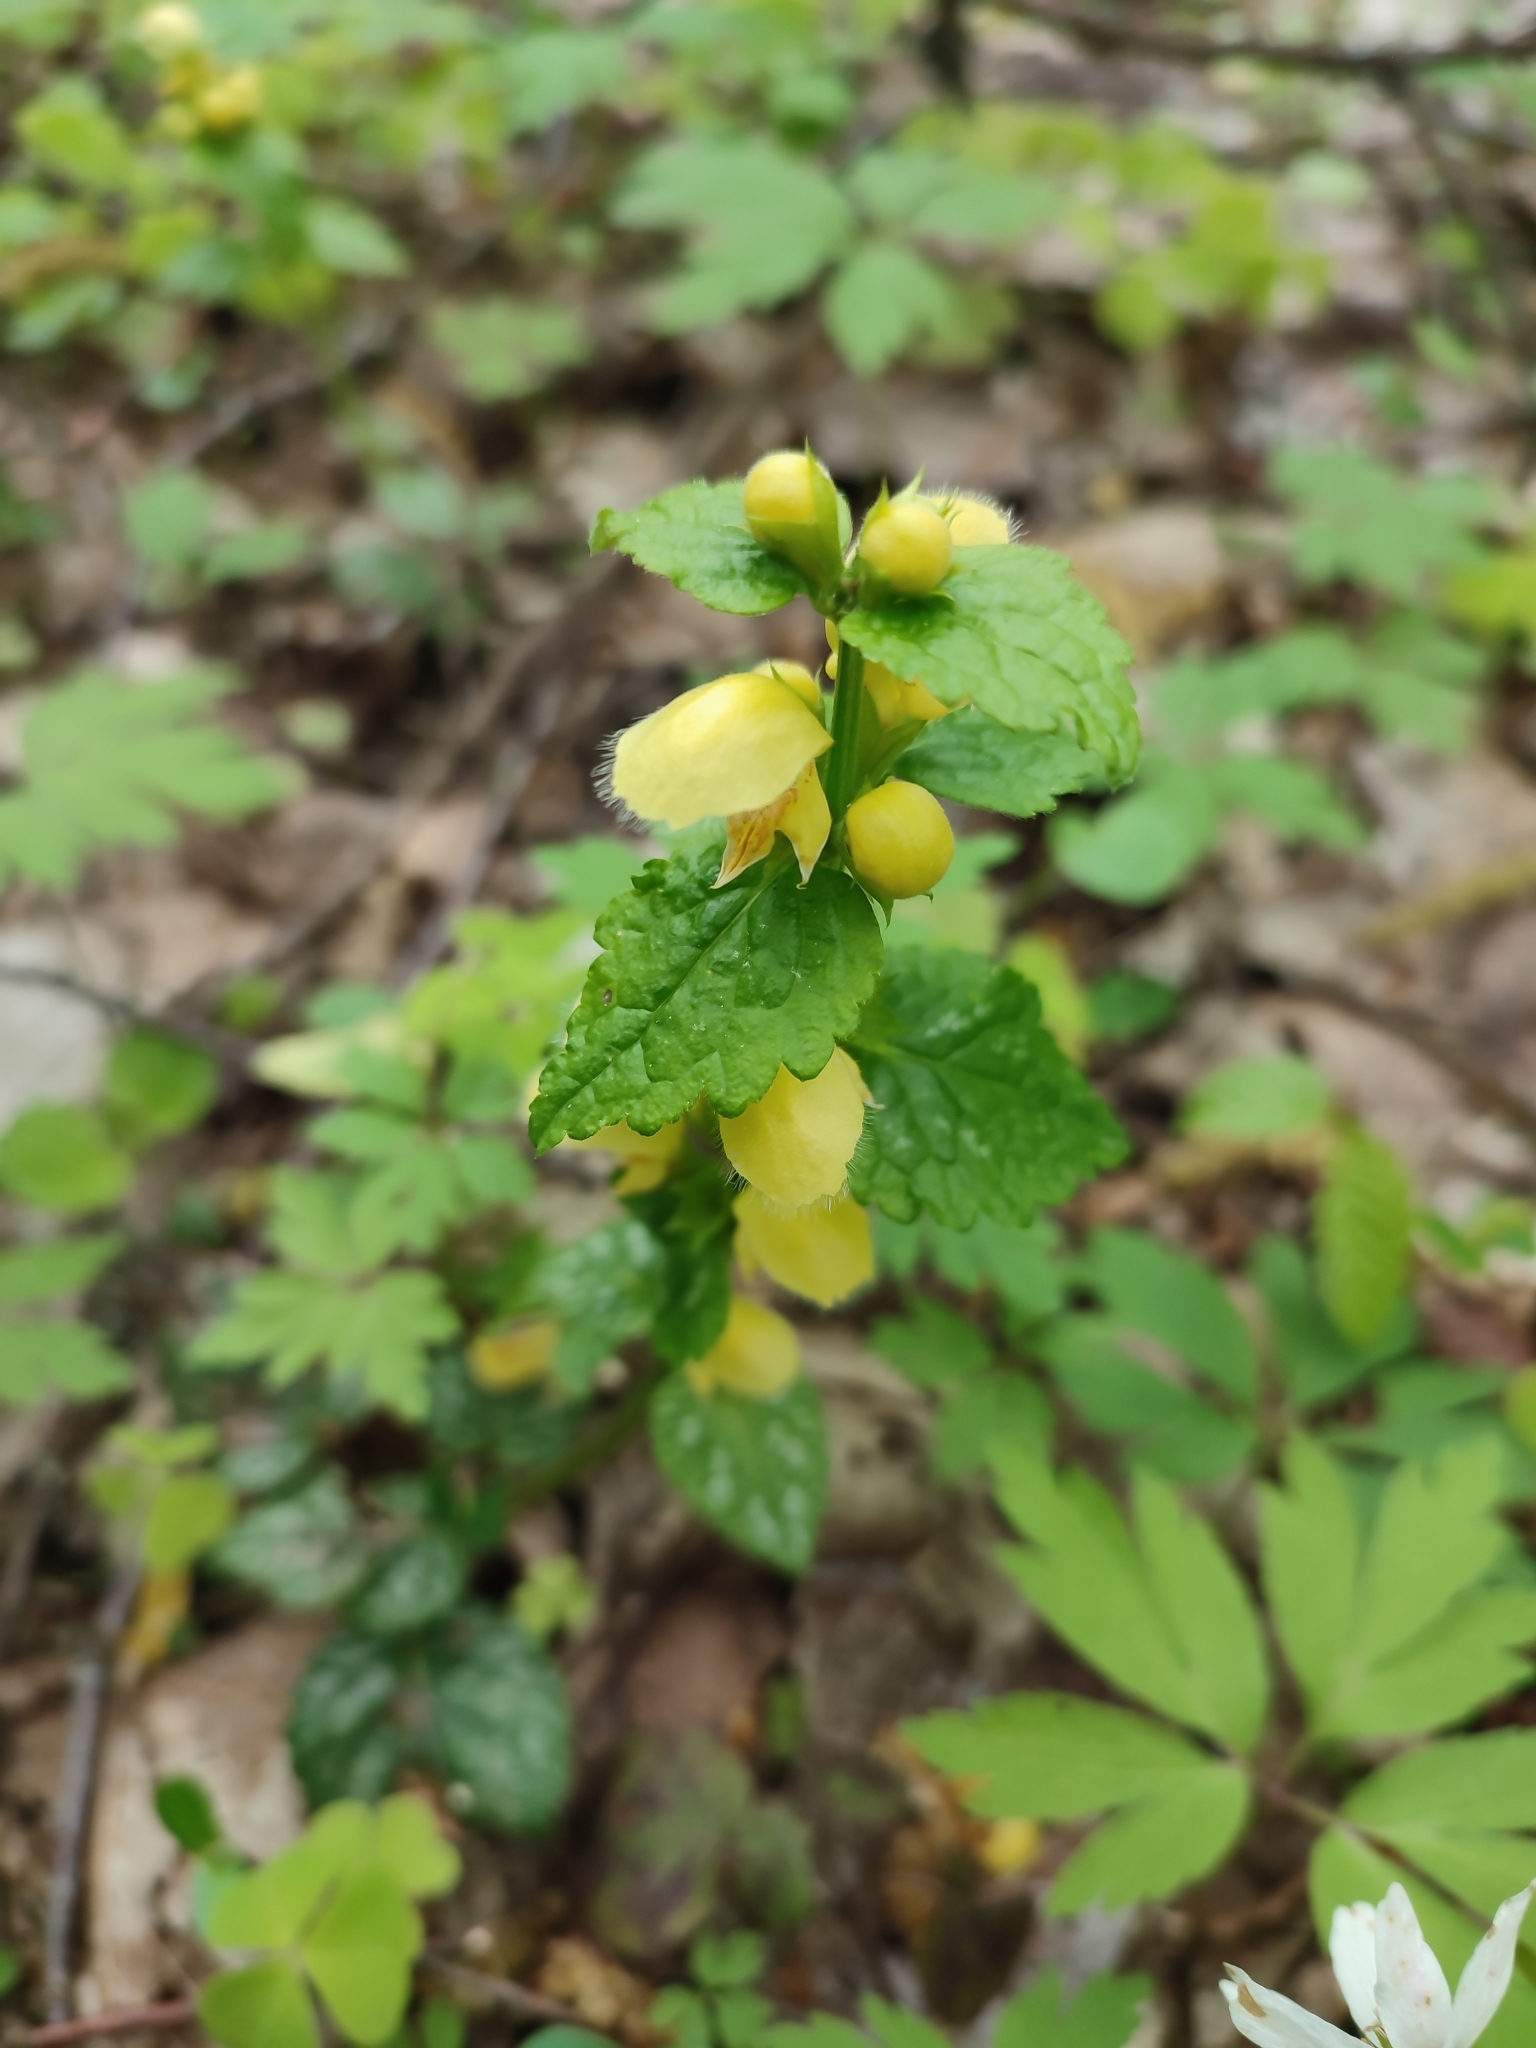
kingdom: Plantae
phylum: Tracheophyta
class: Magnoliopsida
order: Lamiales
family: Lamiaceae
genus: Lamium
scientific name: Lamium galeobdolon
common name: Yellow archangel
